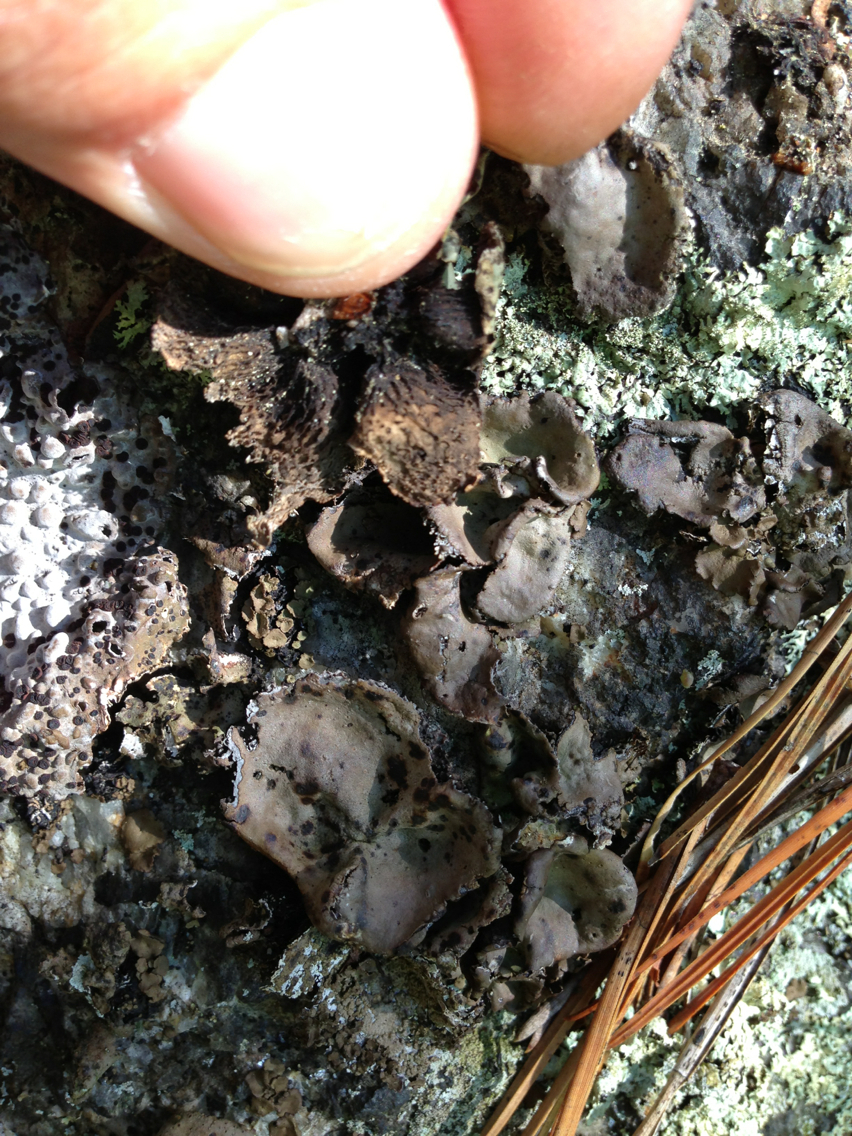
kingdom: Fungi
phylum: Ascomycota
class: Lecanoromycetes
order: Umbilicariales
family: Umbilicariaceae
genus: Umbilicaria
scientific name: Umbilicaria muhlenbergii
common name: Lesser rocktripe
